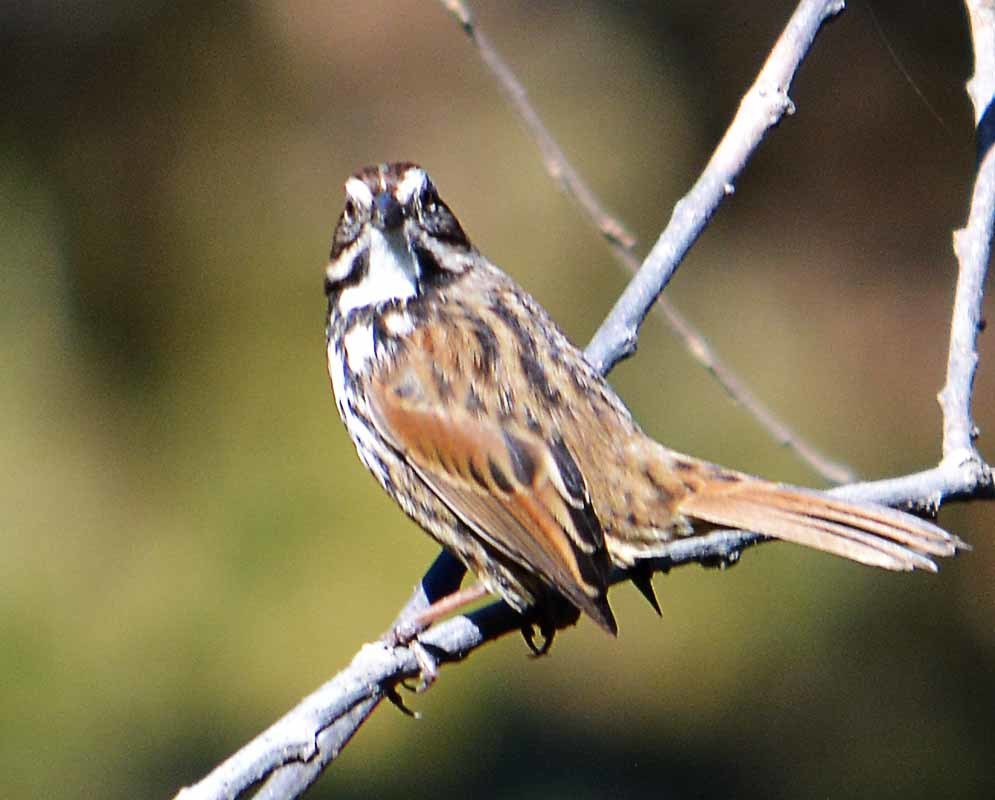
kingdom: Animalia
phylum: Chordata
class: Aves
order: Passeriformes
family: Passerellidae
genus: Melospiza
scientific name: Melospiza melodia
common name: Song sparrow
